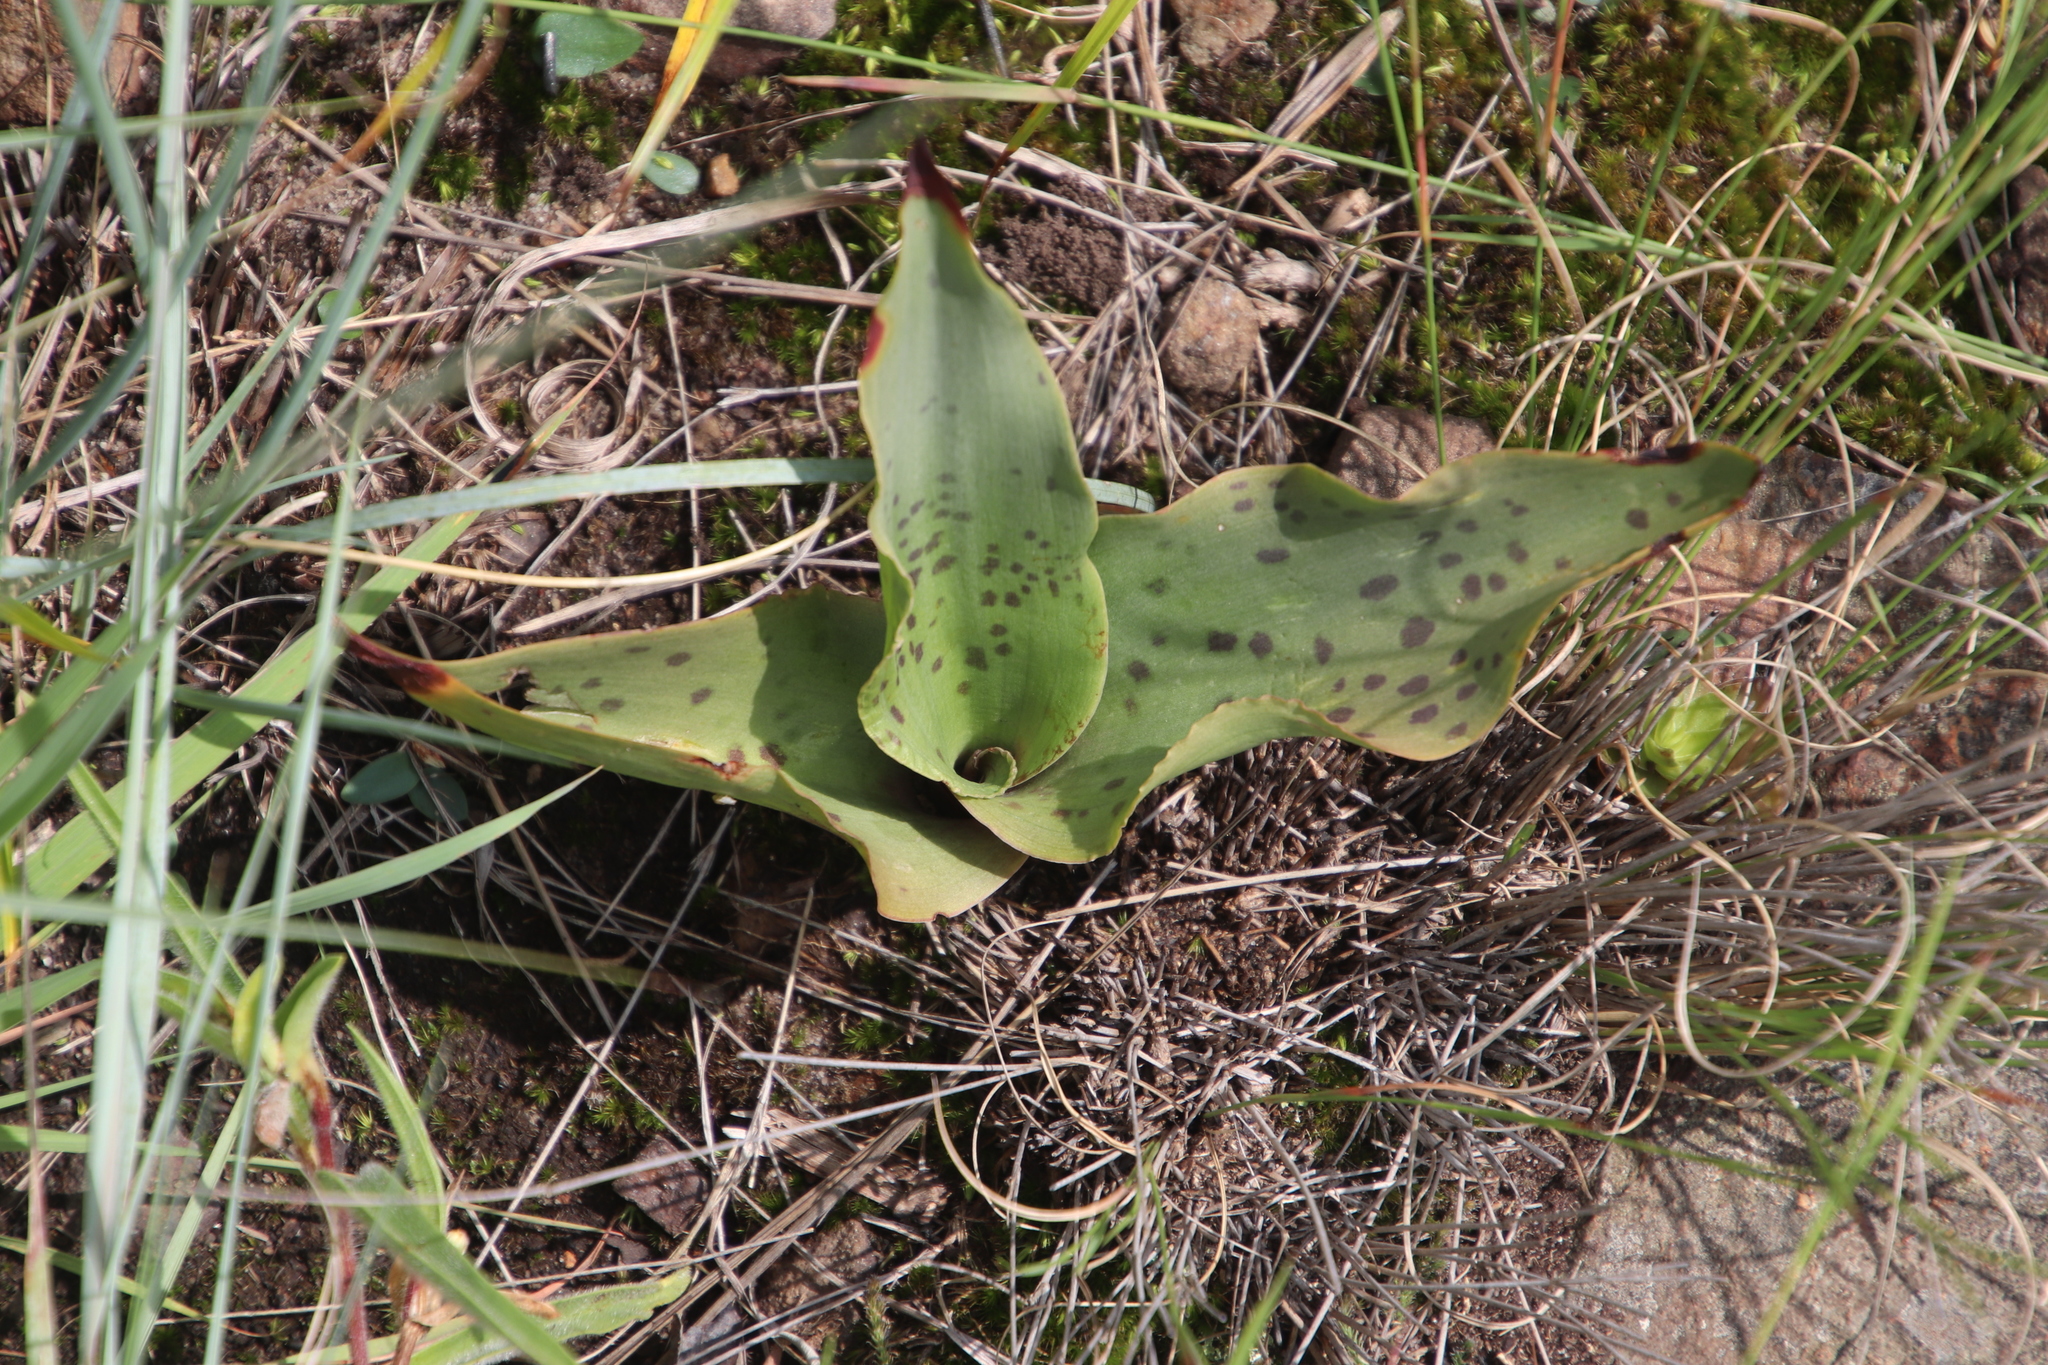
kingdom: Plantae
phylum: Tracheophyta
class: Liliopsida
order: Asparagales
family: Asparagaceae
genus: Ledebouria
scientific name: Ledebouria floribunda
